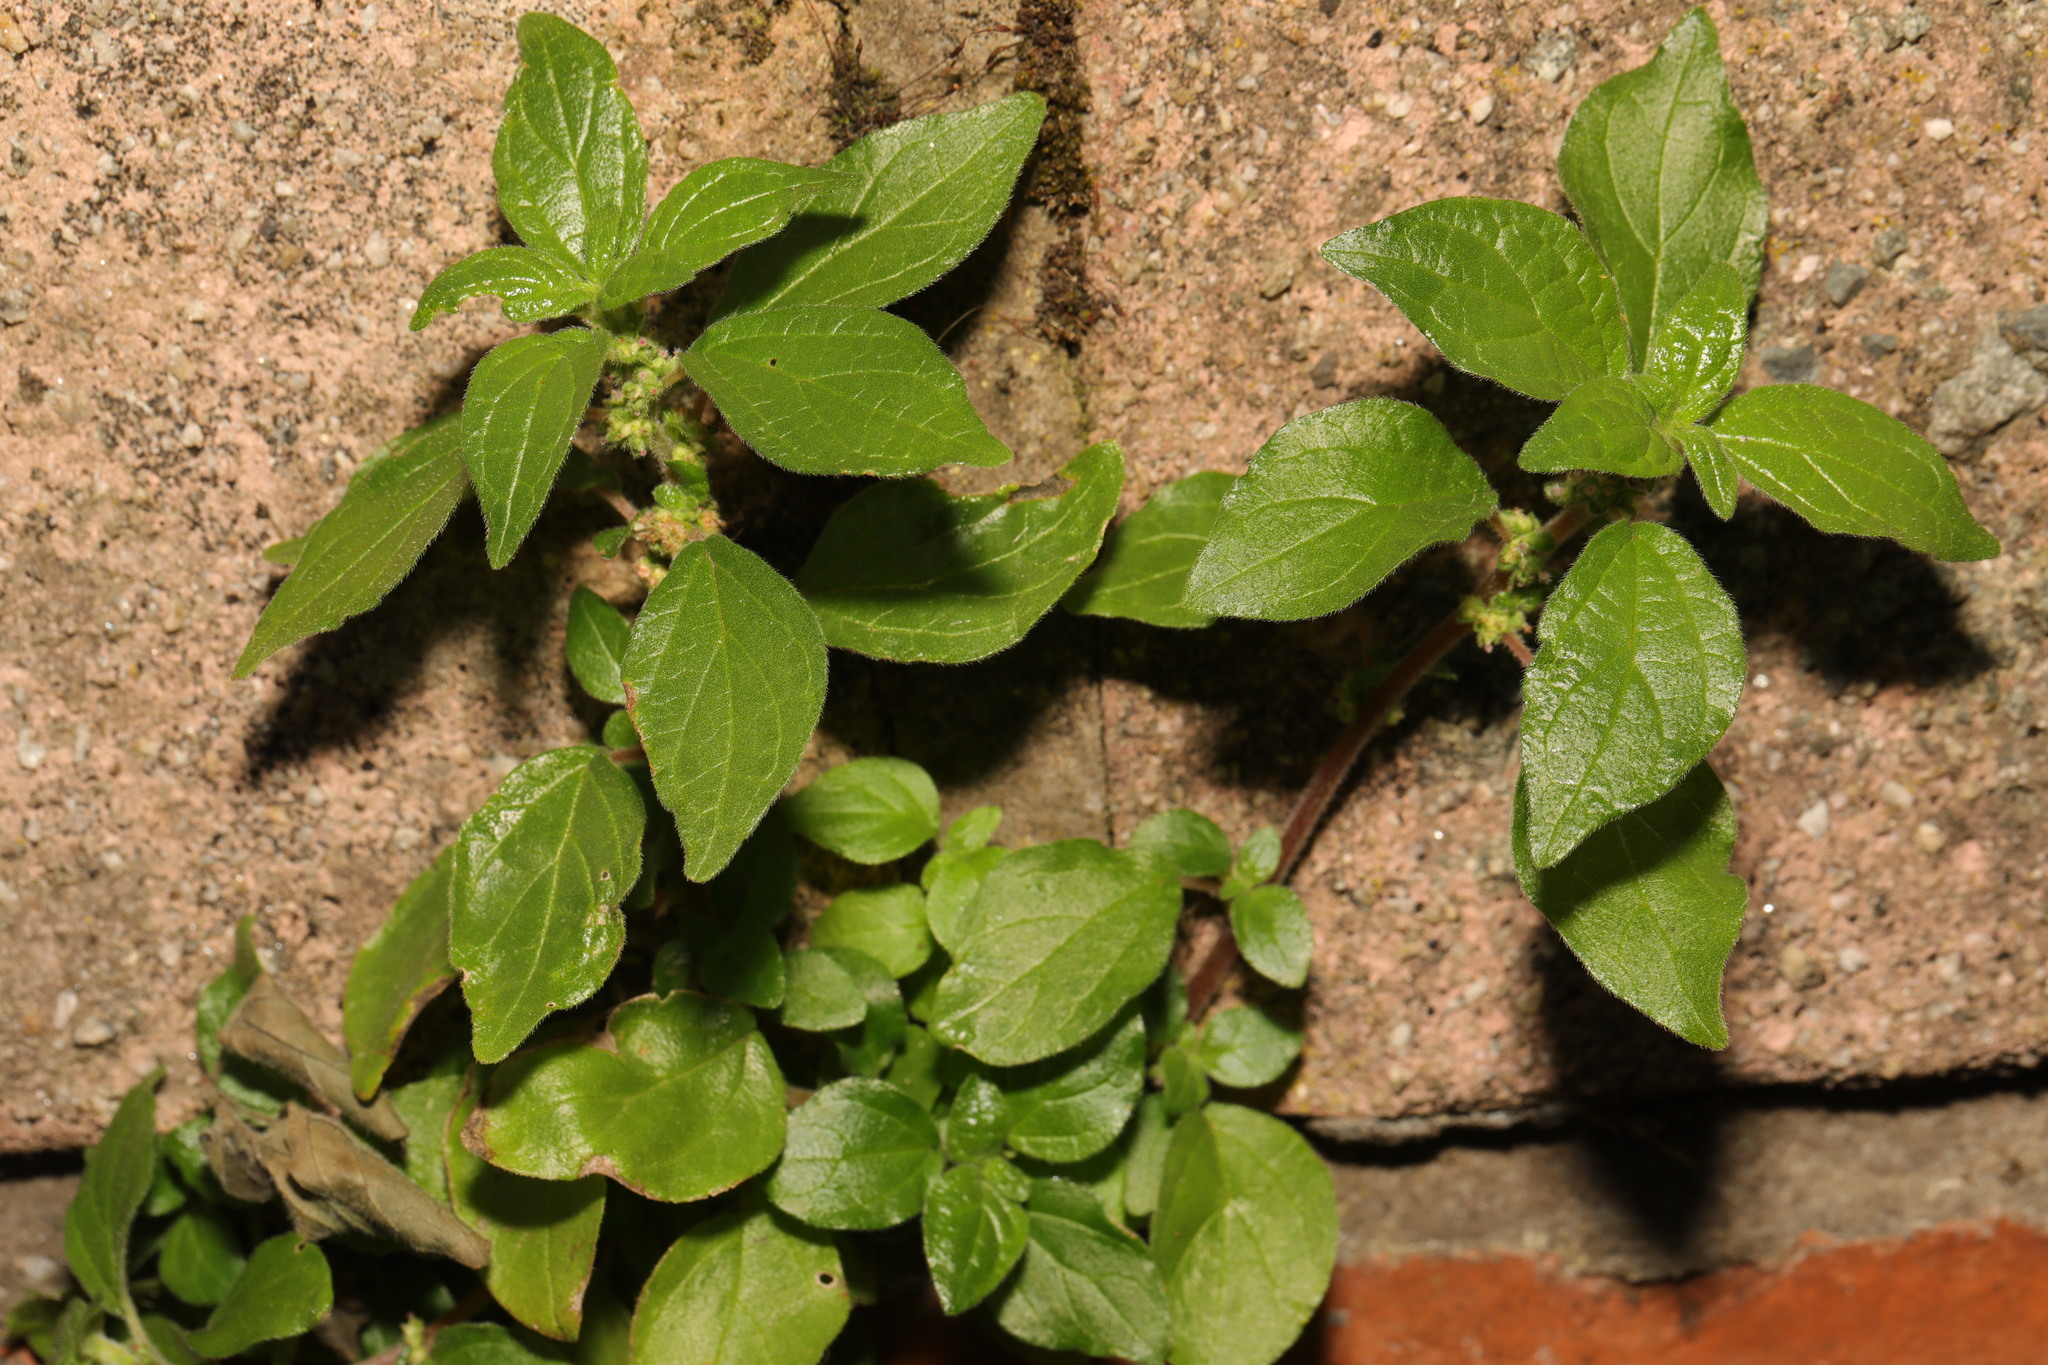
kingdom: Plantae
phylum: Tracheophyta
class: Magnoliopsida
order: Rosales
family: Urticaceae
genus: Parietaria
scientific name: Parietaria judaica
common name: Pellitory-of-the-wall
